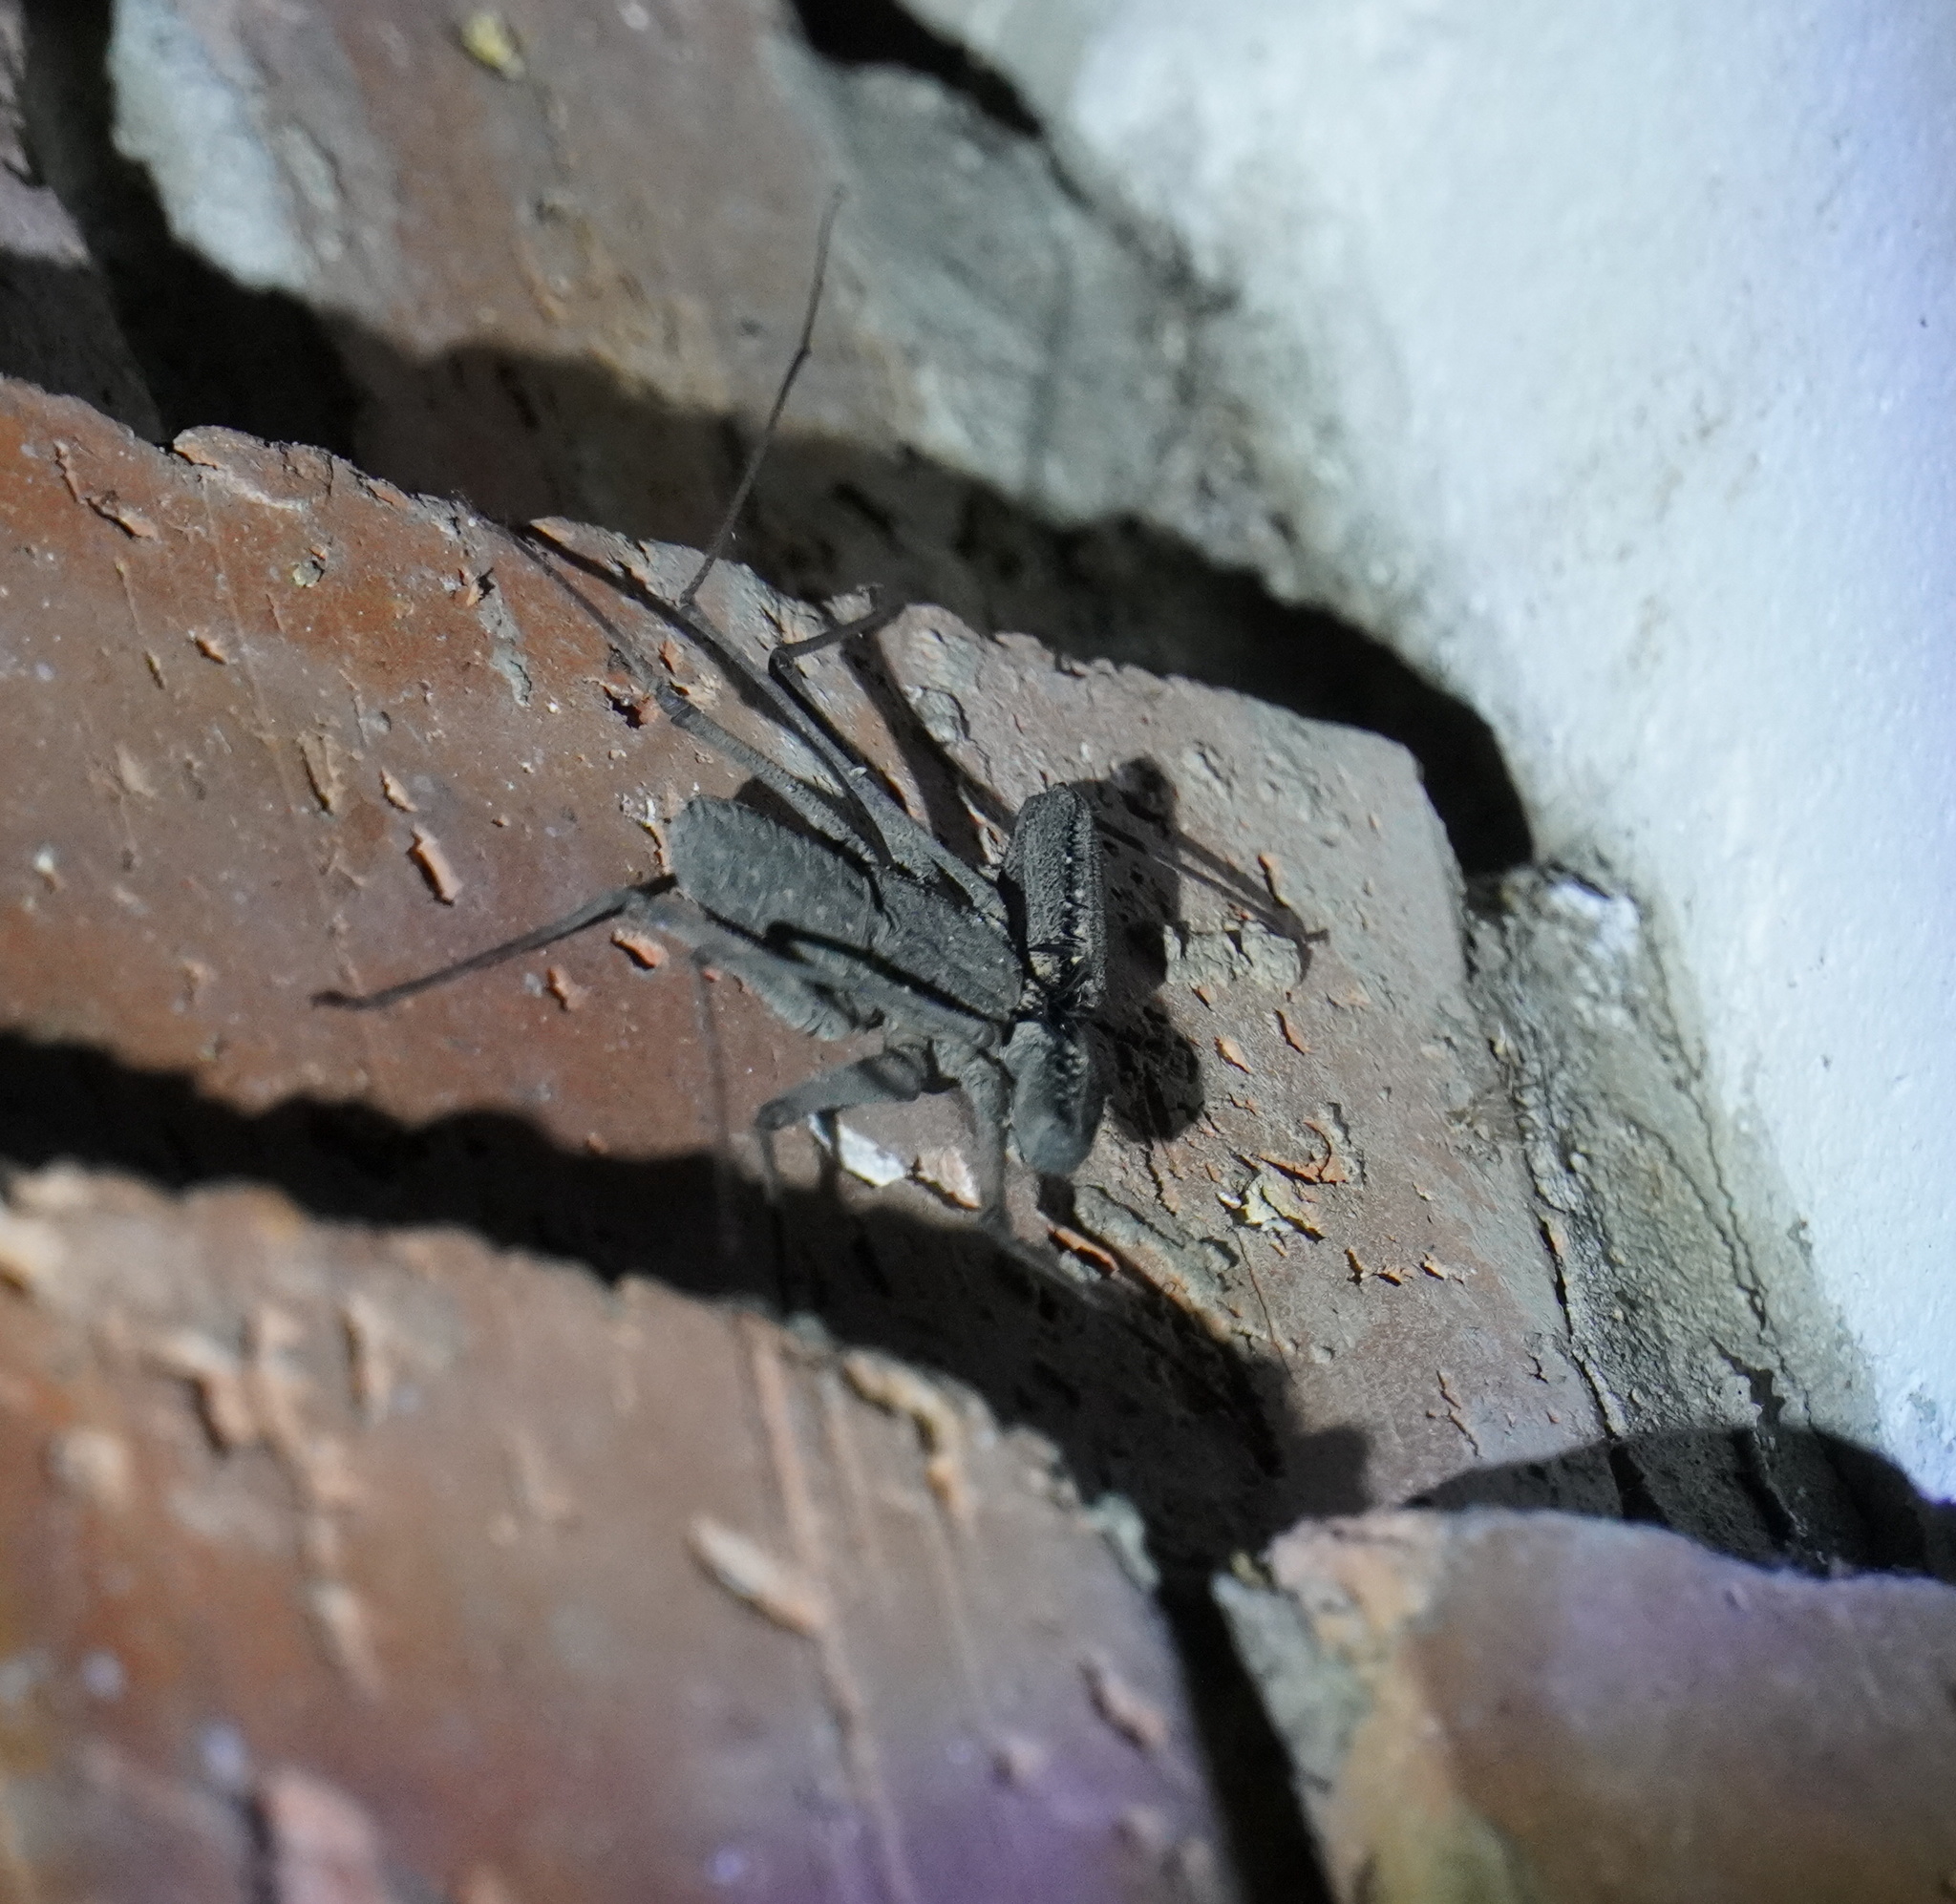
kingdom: Animalia
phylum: Arthropoda
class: Arachnida
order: Amblypygi
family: Phrynichidae
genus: Damon
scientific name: Damon annulatipes
